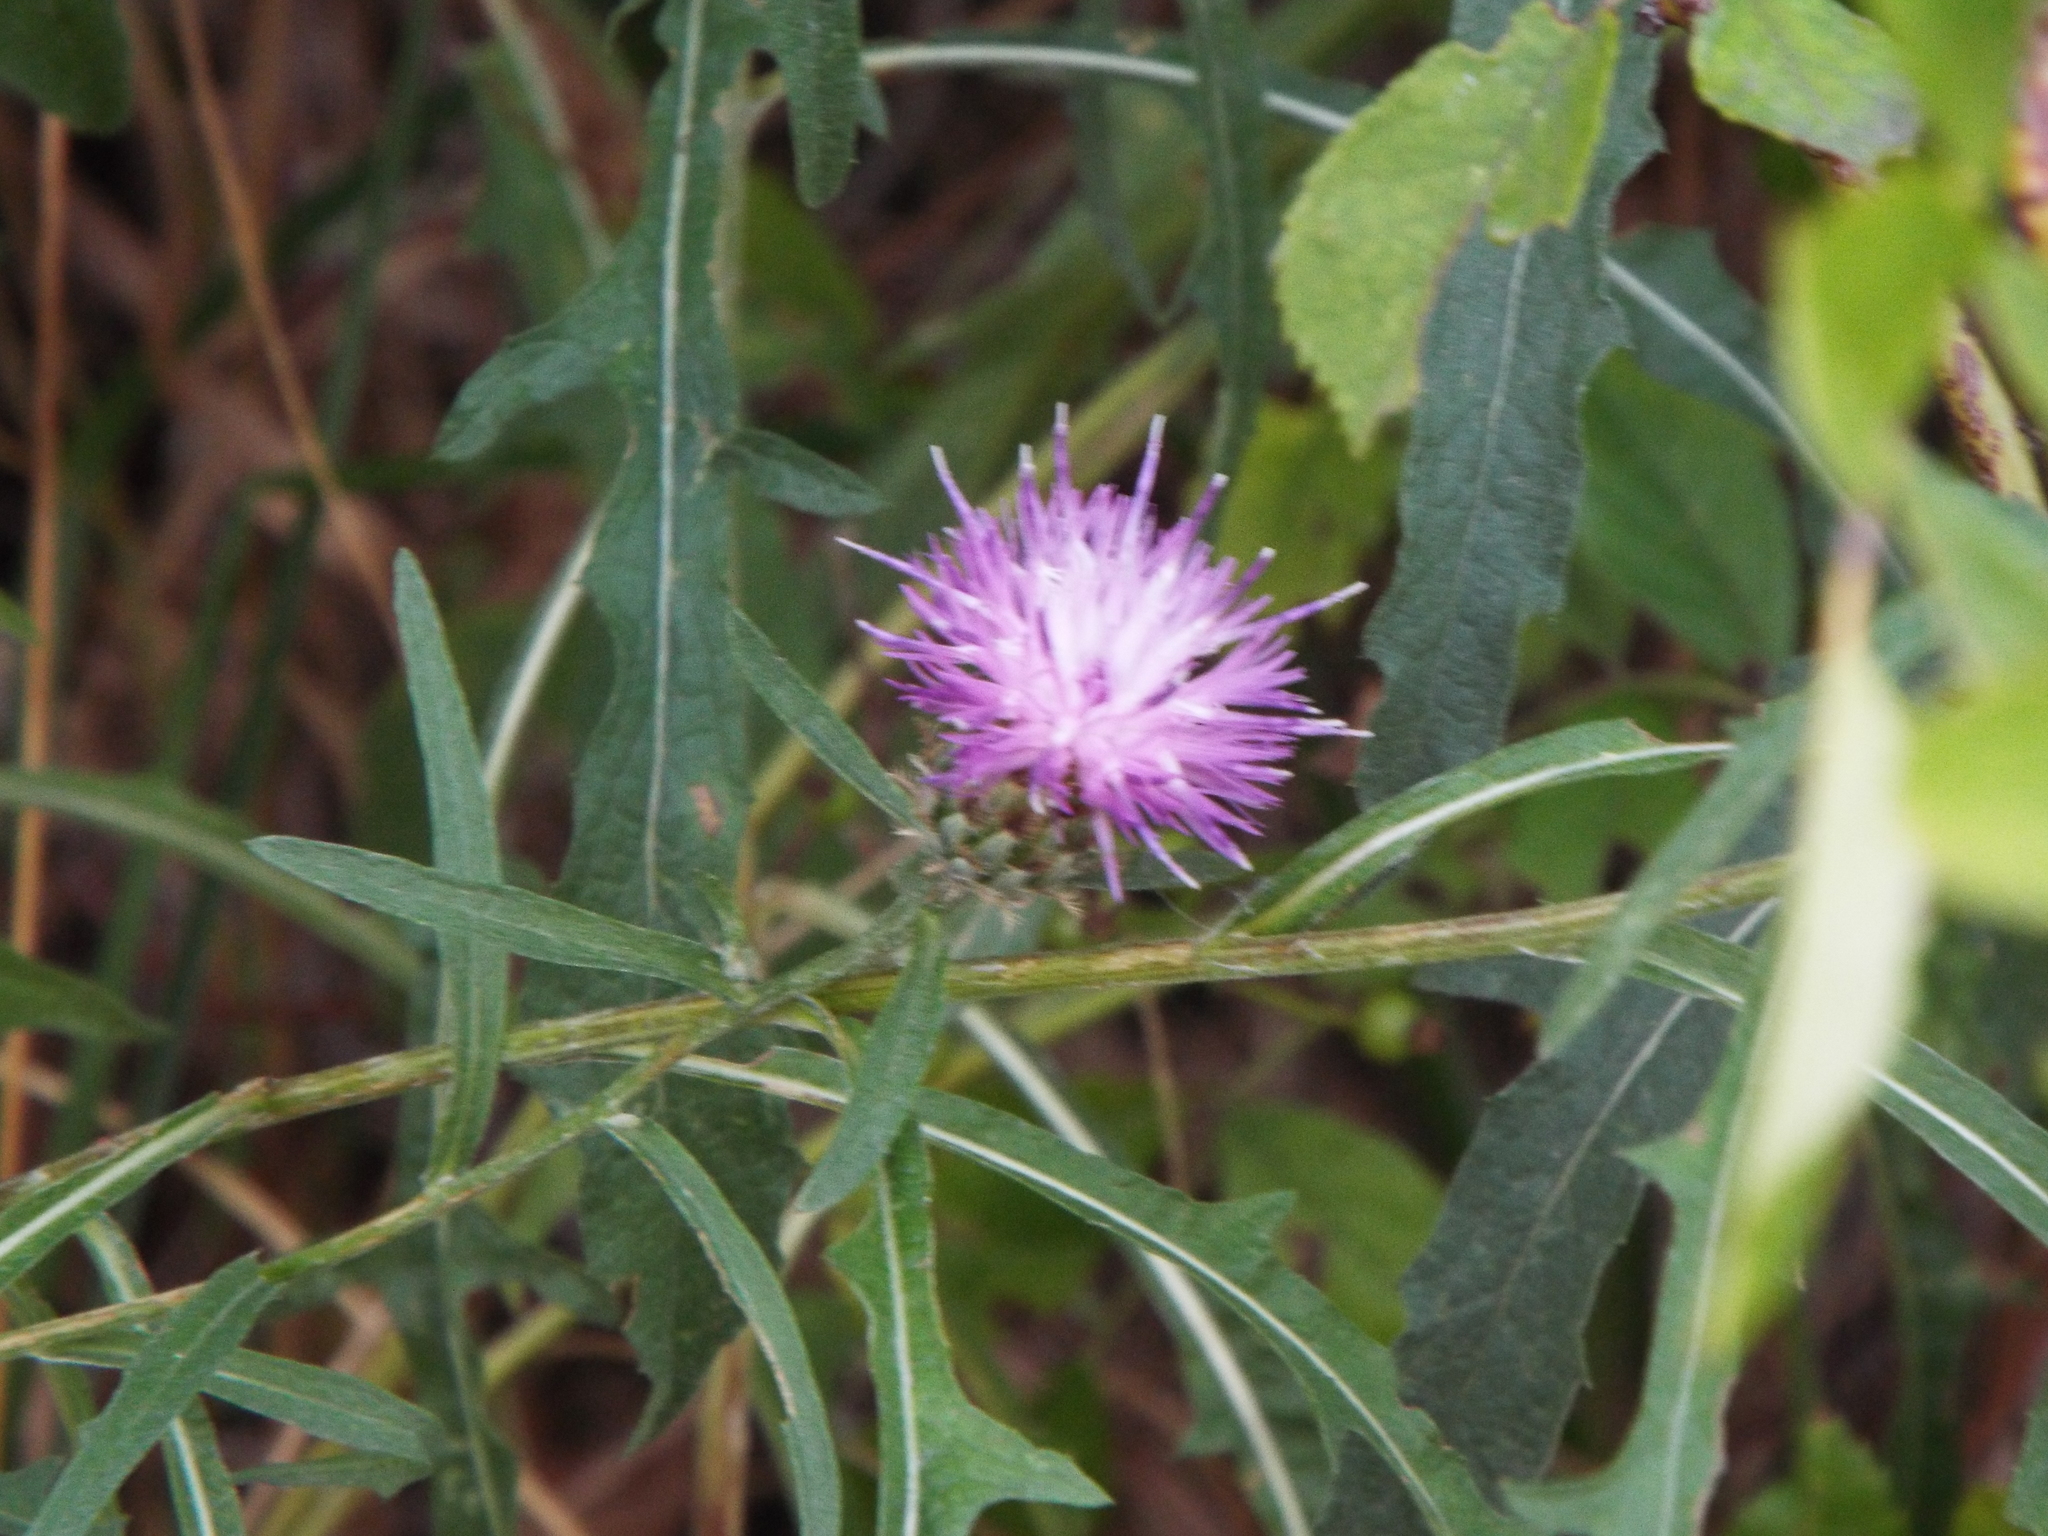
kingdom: Plantae
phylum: Tracheophyta
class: Magnoliopsida
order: Asterales
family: Asteraceae
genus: Centaurea
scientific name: Centaurea stoebe
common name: Spotted knapweed
